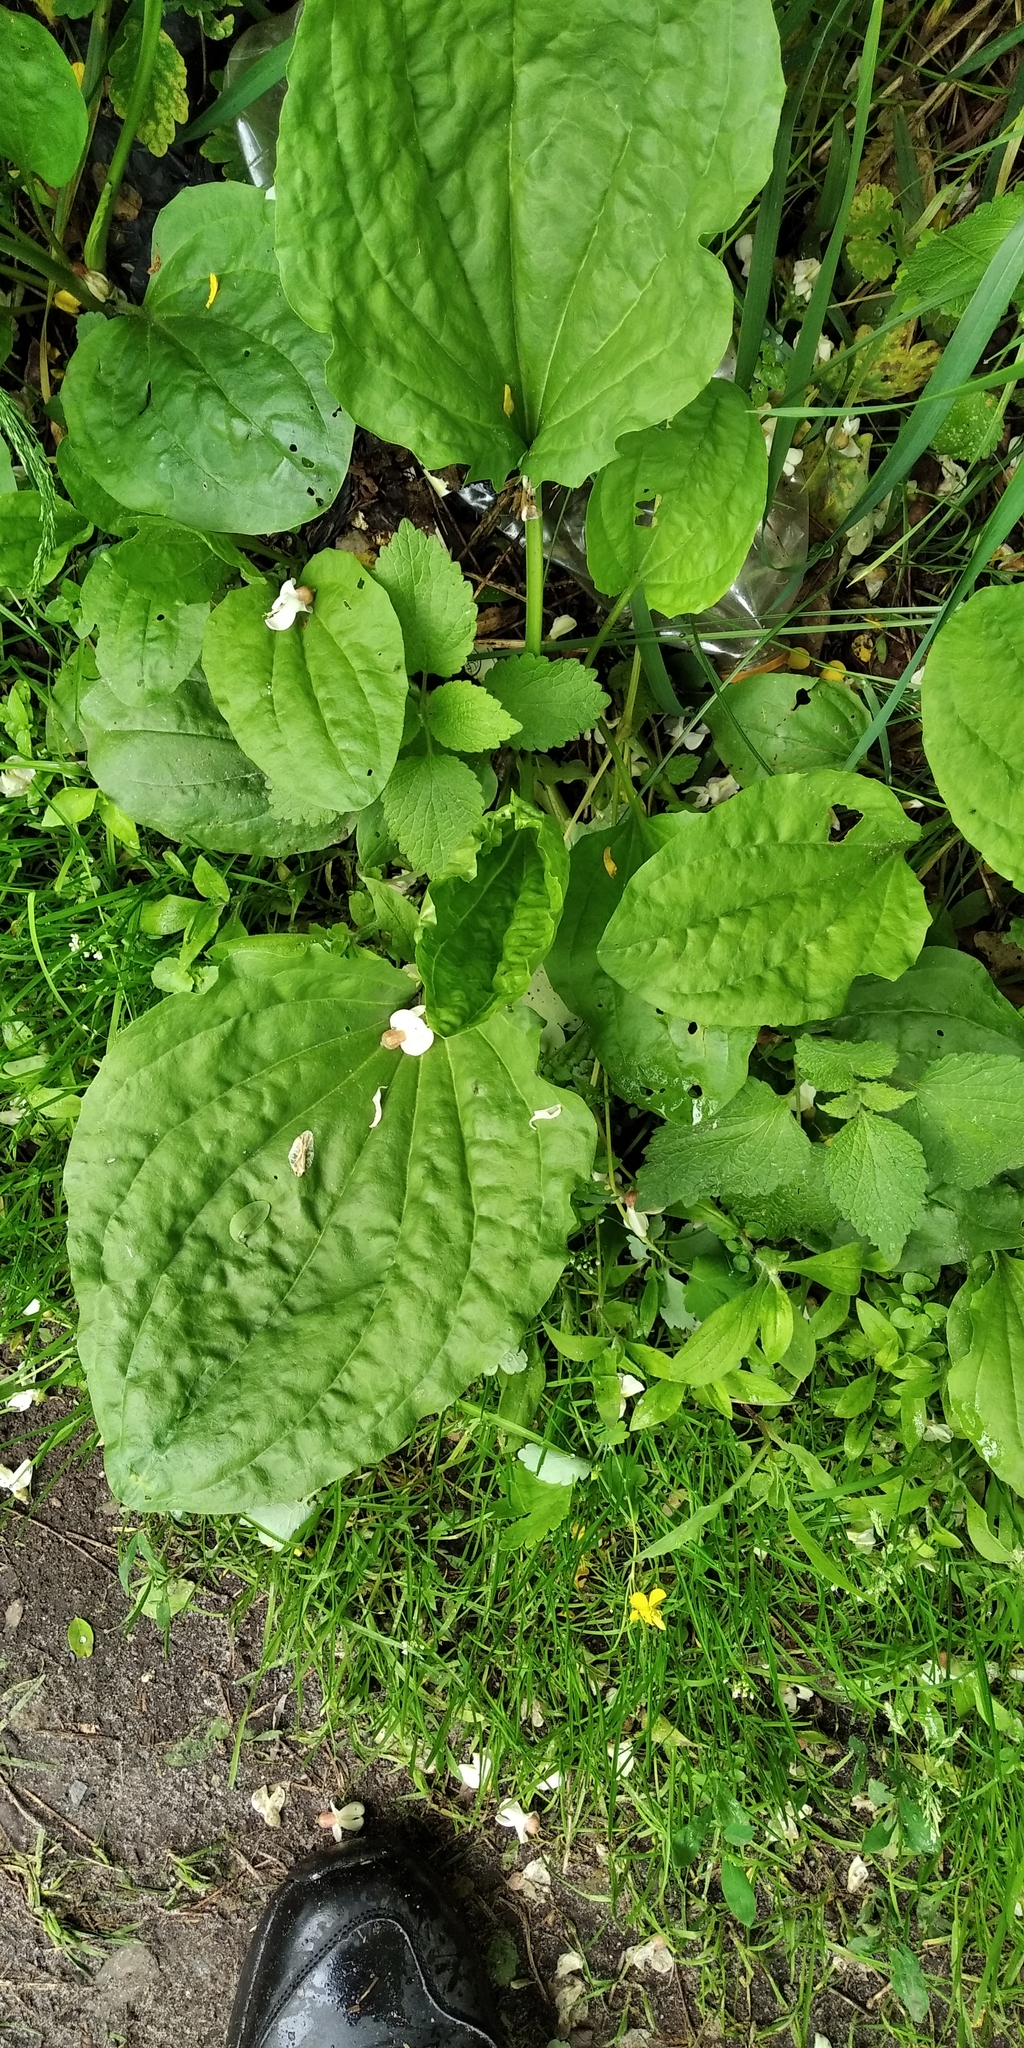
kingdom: Plantae
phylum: Tracheophyta
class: Magnoliopsida
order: Lamiales
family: Plantaginaceae
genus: Plantago
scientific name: Plantago major
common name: Common plantain
